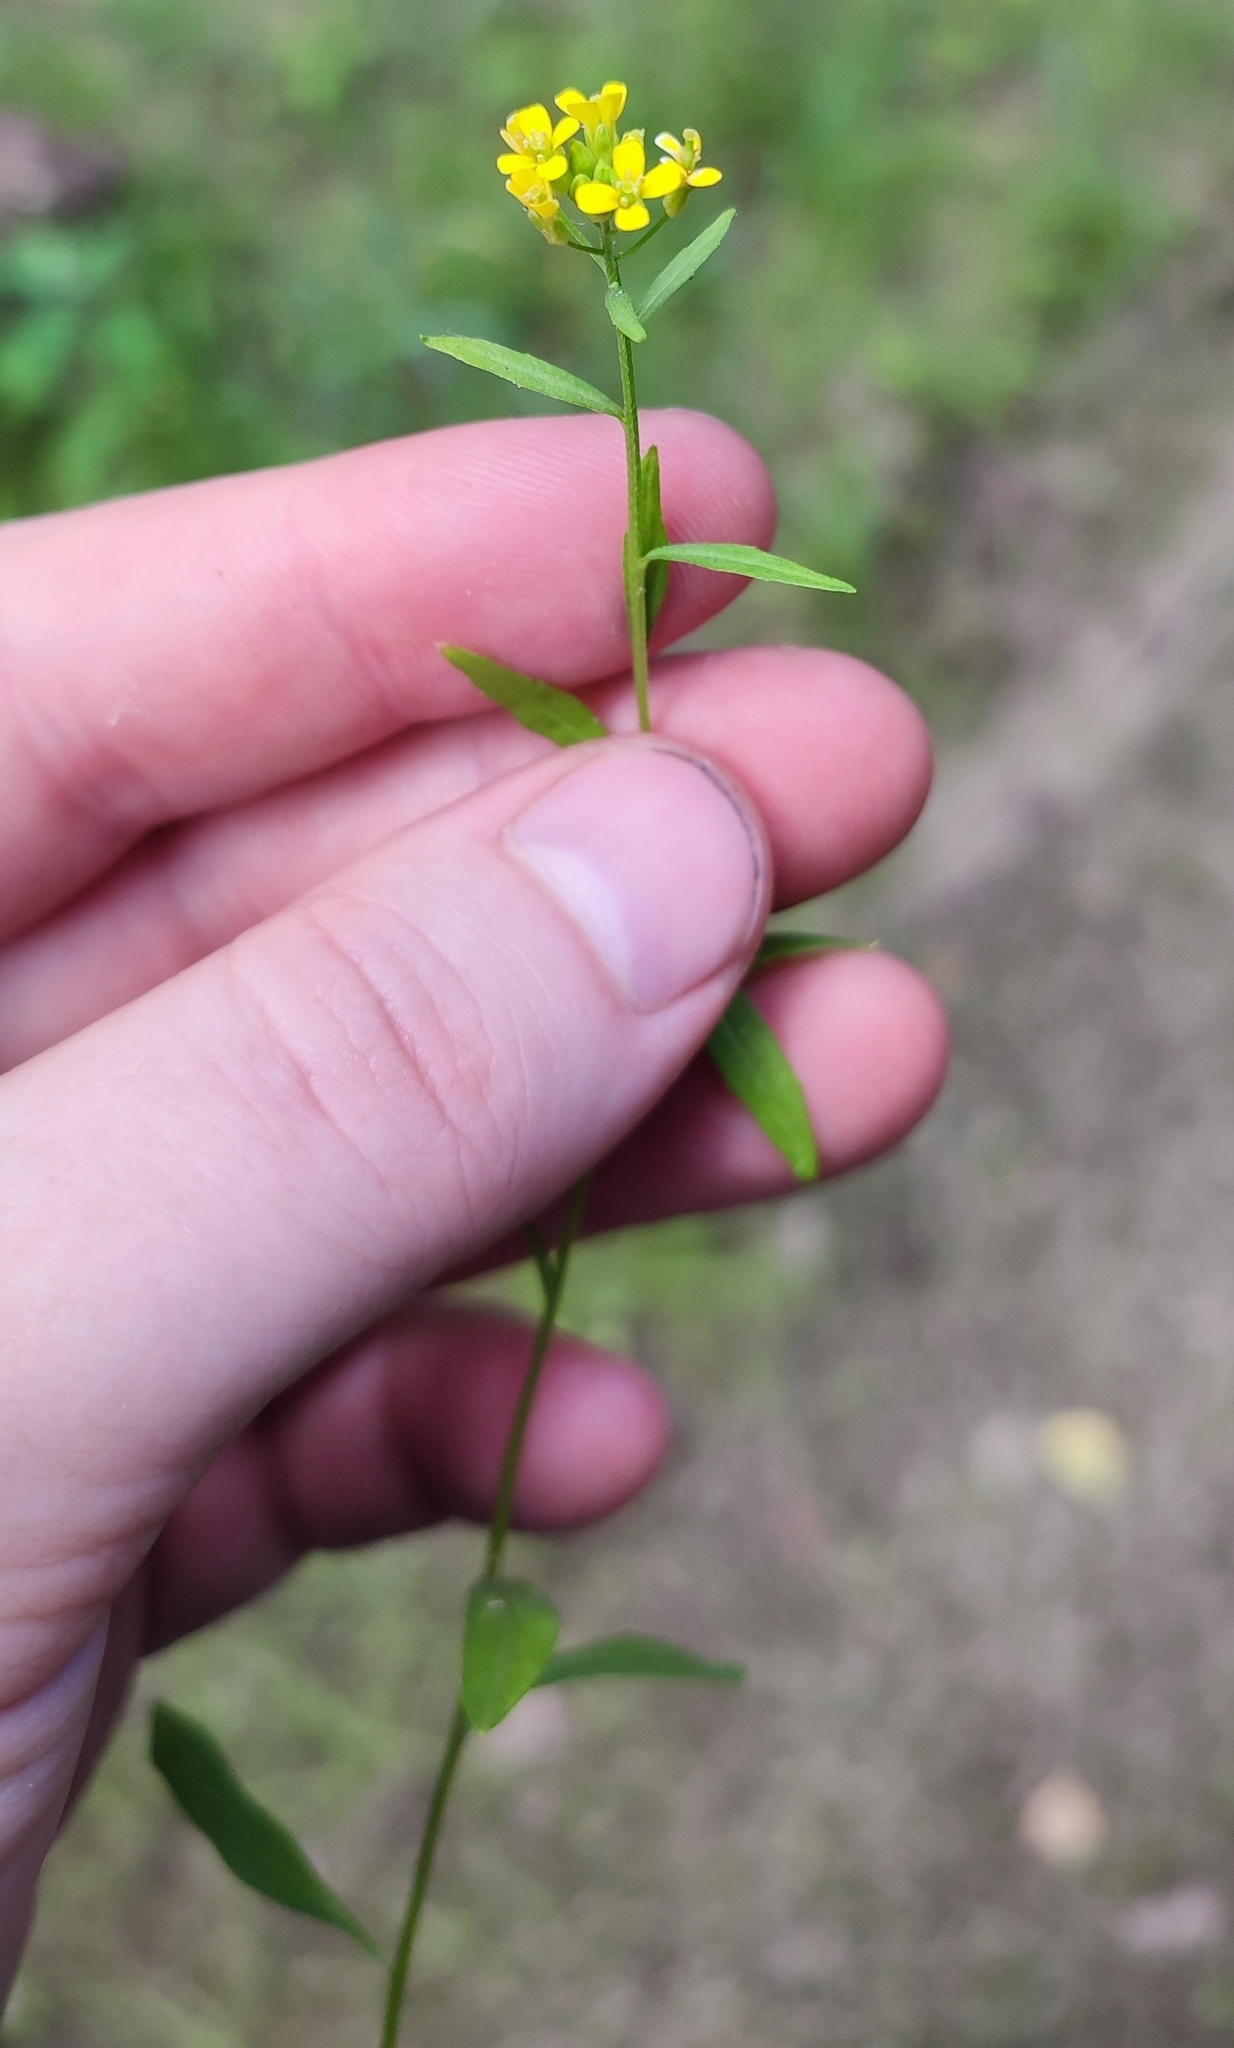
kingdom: Plantae
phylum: Tracheophyta
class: Magnoliopsida
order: Brassicales
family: Brassicaceae
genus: Erysimum
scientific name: Erysimum cheiranthoides
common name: Treacle mustard
